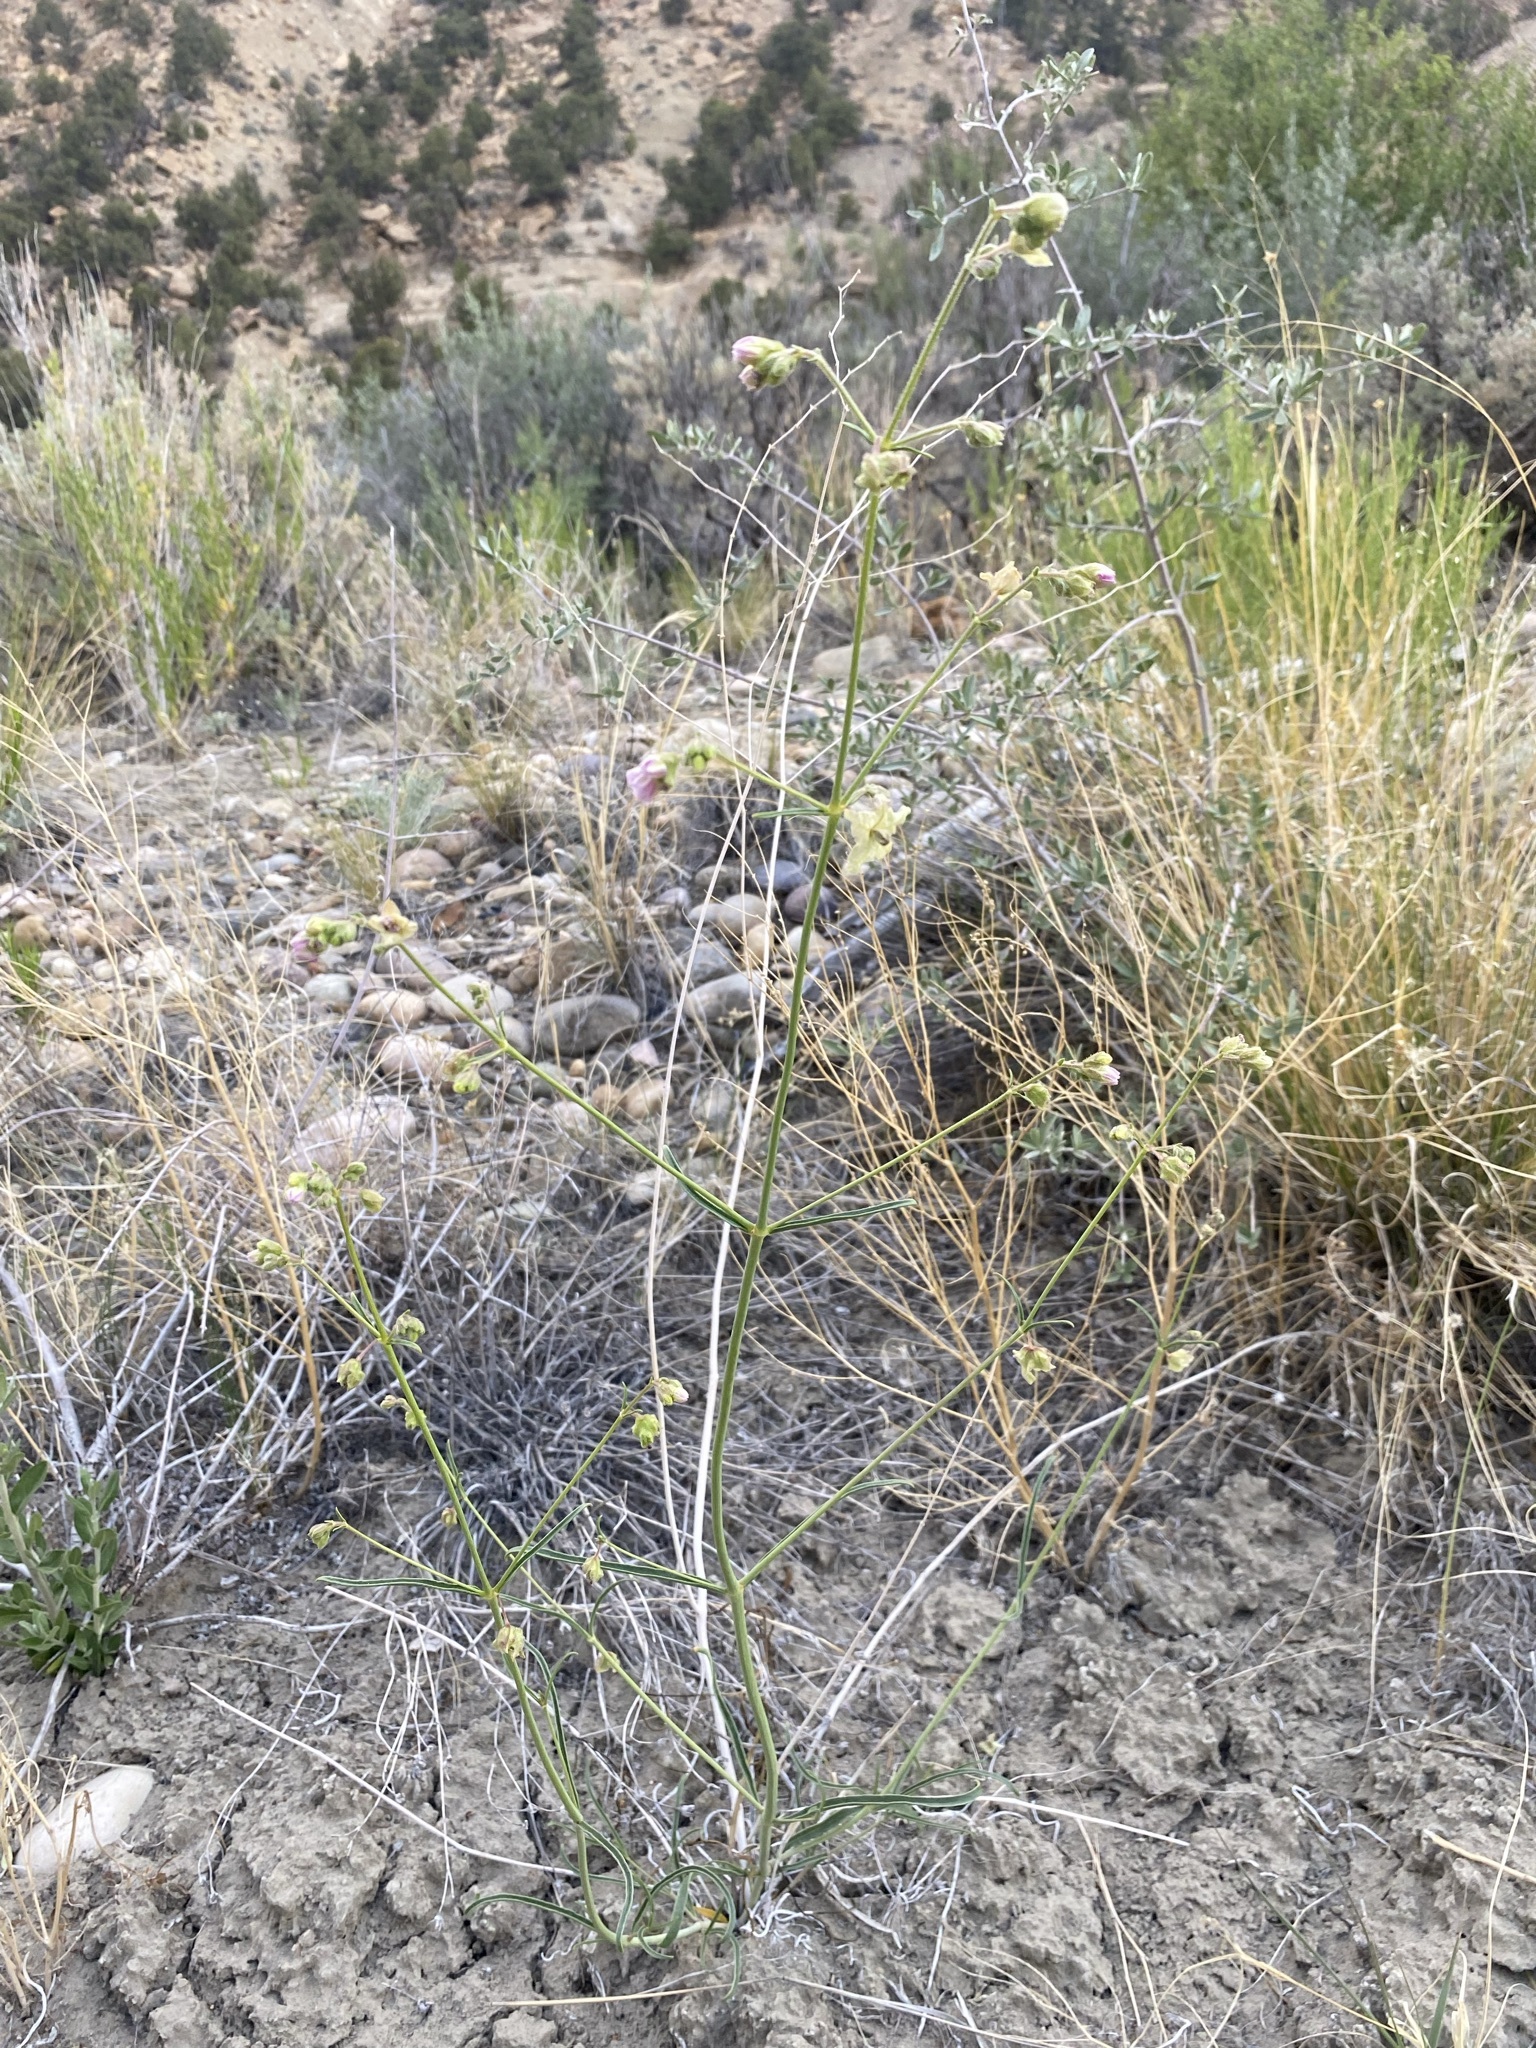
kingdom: Plantae
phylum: Tracheophyta
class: Magnoliopsida
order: Caryophyllales
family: Nyctaginaceae
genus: Mirabilis
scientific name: Mirabilis linearis
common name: Linear-leaved four-o'clock
